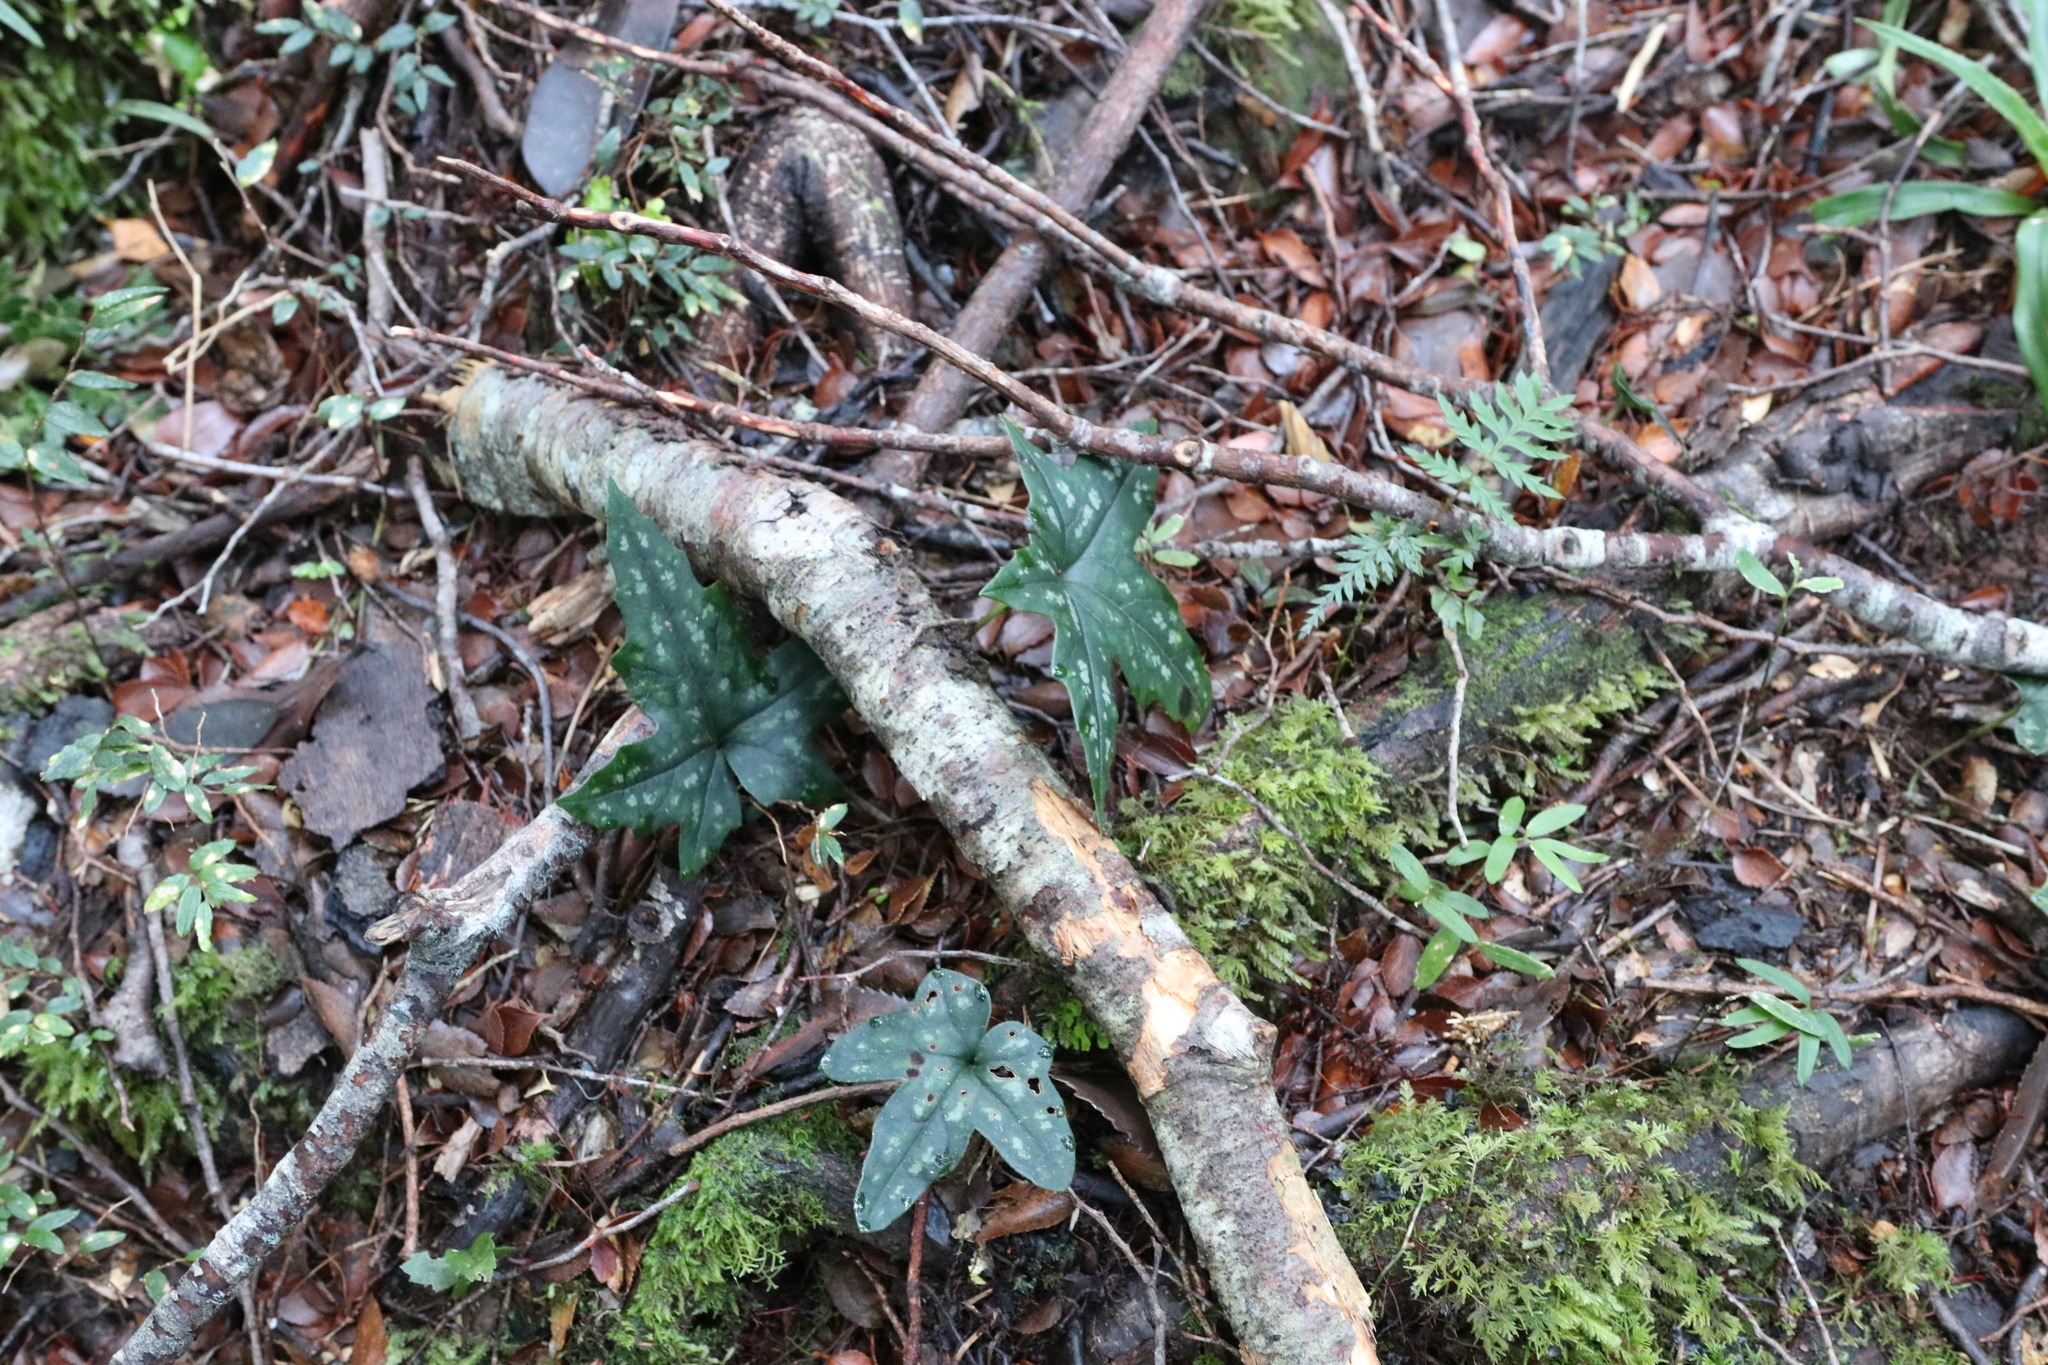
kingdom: Plantae
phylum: Tracheophyta
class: Magnoliopsida
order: Ranunculales
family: Ranunculaceae
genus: Knowltonia
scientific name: Knowltonia hepaticifolia
